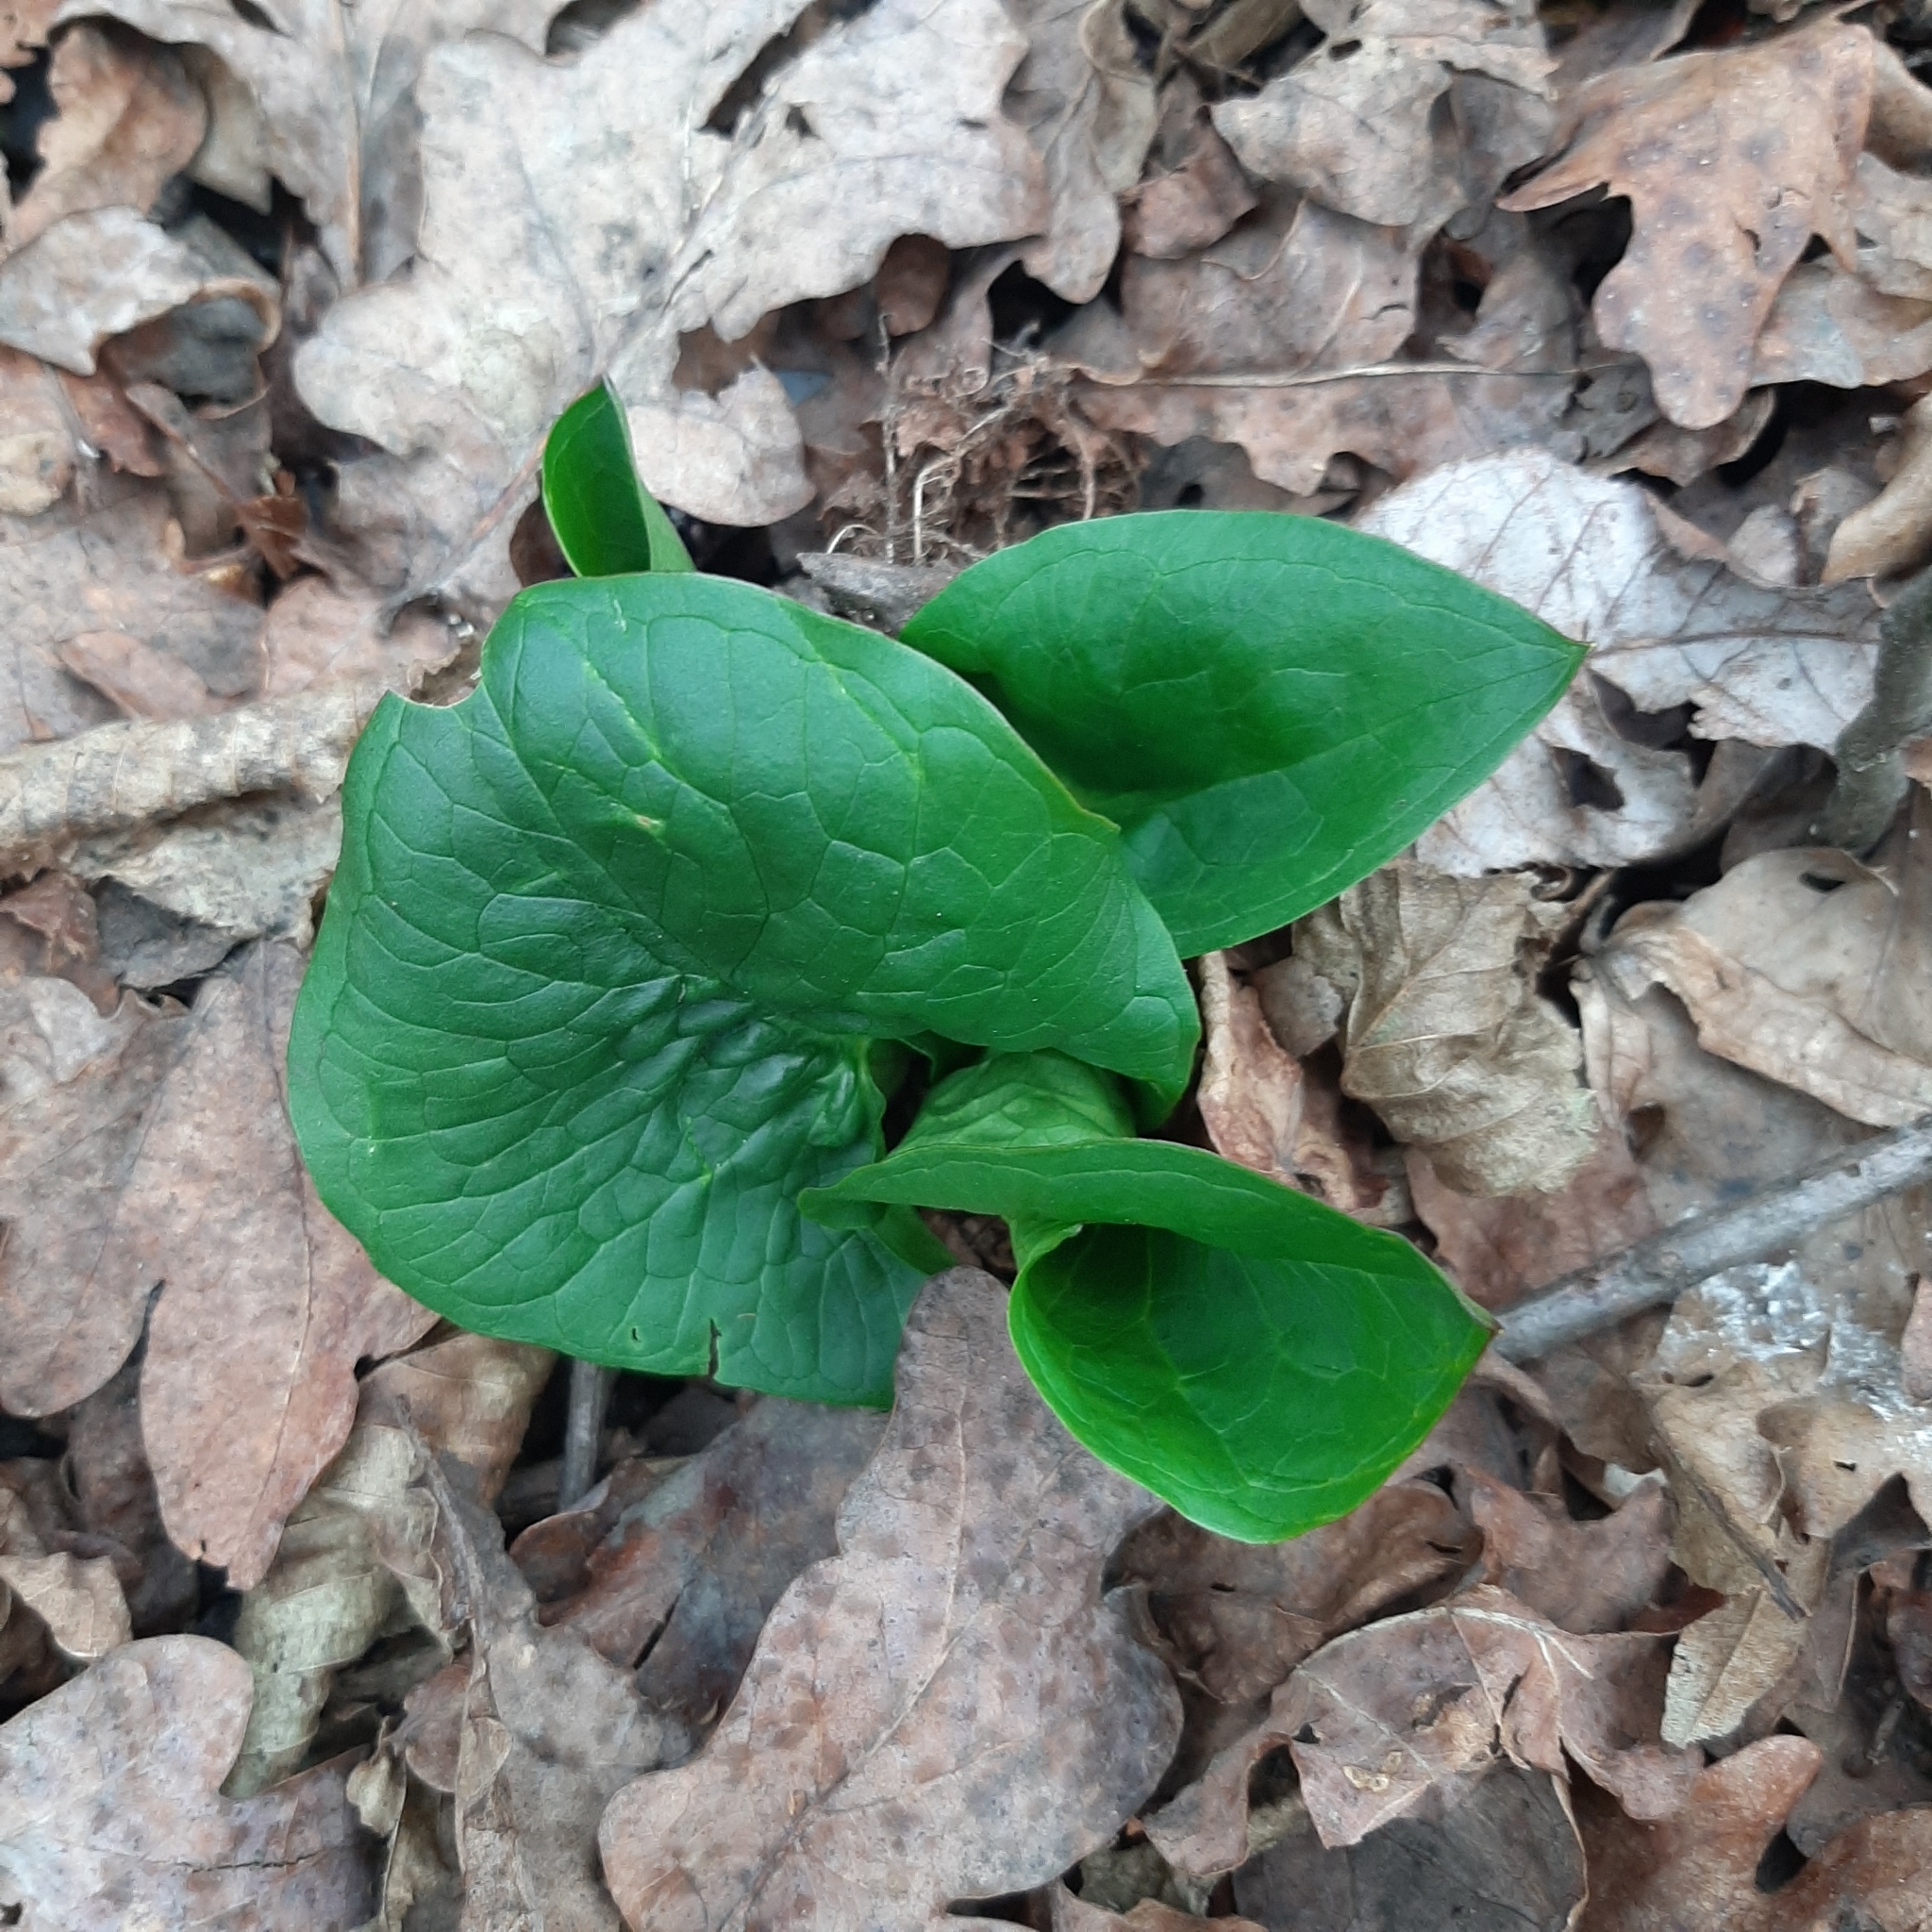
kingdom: Plantae
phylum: Tracheophyta
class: Liliopsida
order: Alismatales
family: Araceae
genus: Arum
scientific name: Arum maculatum
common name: Lords-and-ladies
